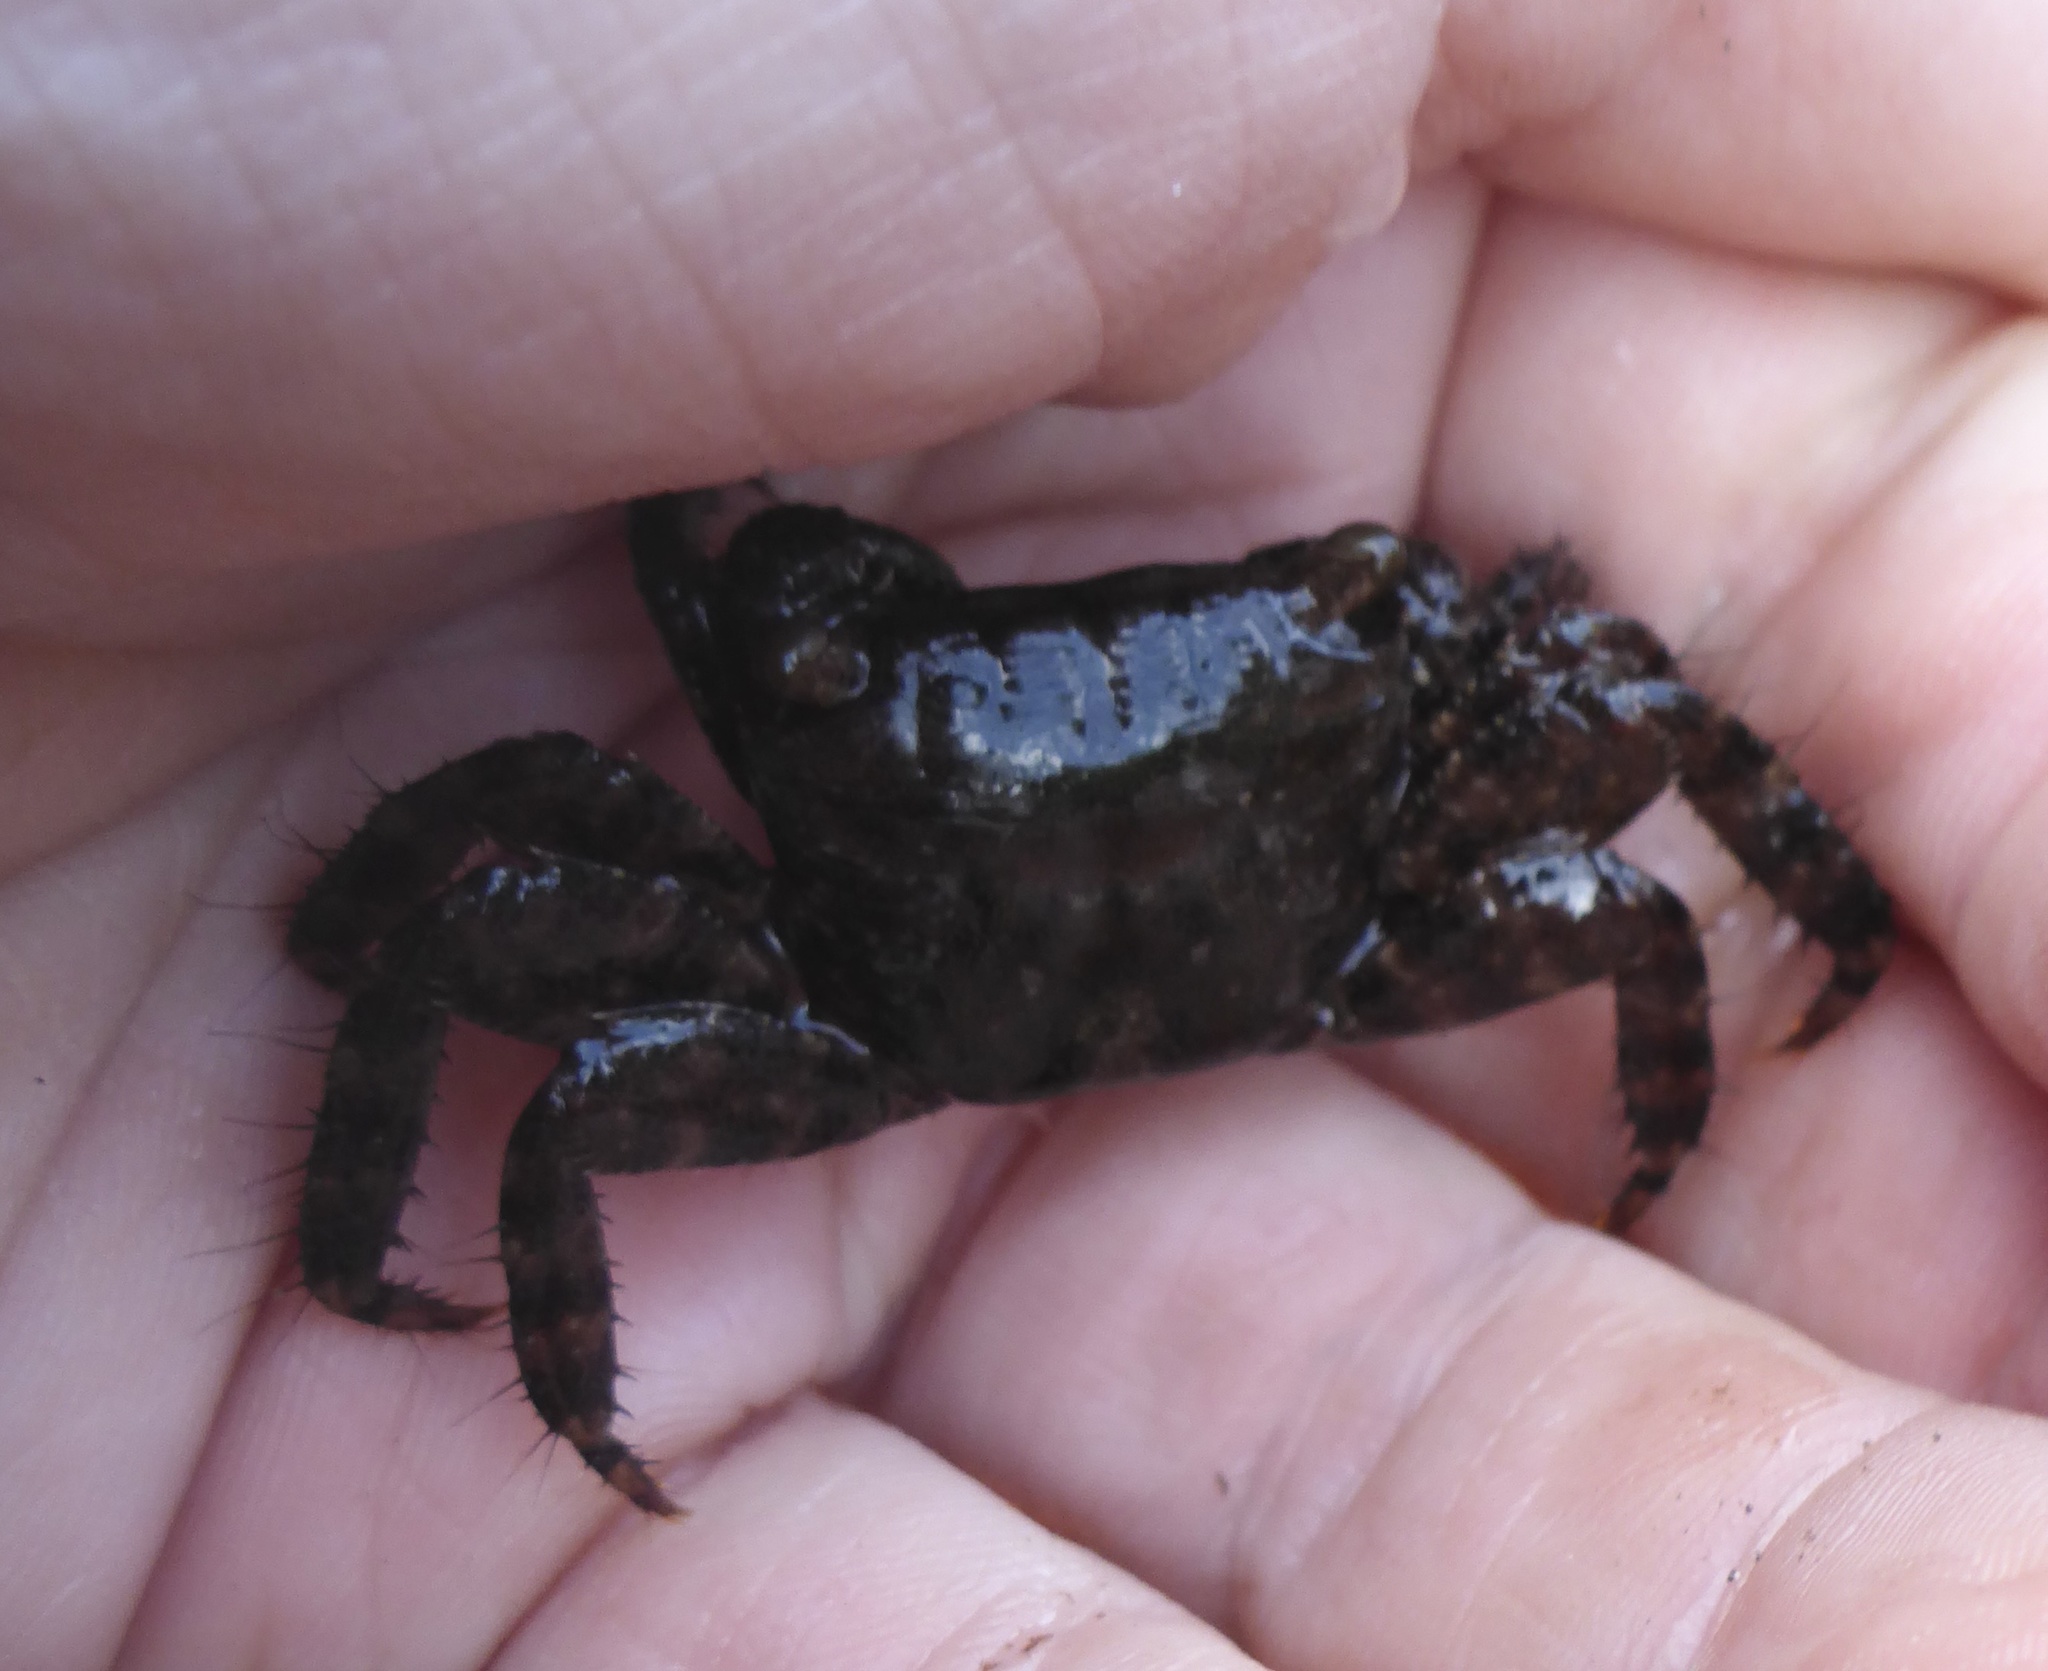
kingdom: Animalia
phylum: Arthropoda
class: Malacostraca
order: Decapoda
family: Grapsidae
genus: Metopograpsus
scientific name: Metopograpsus thukuhar
